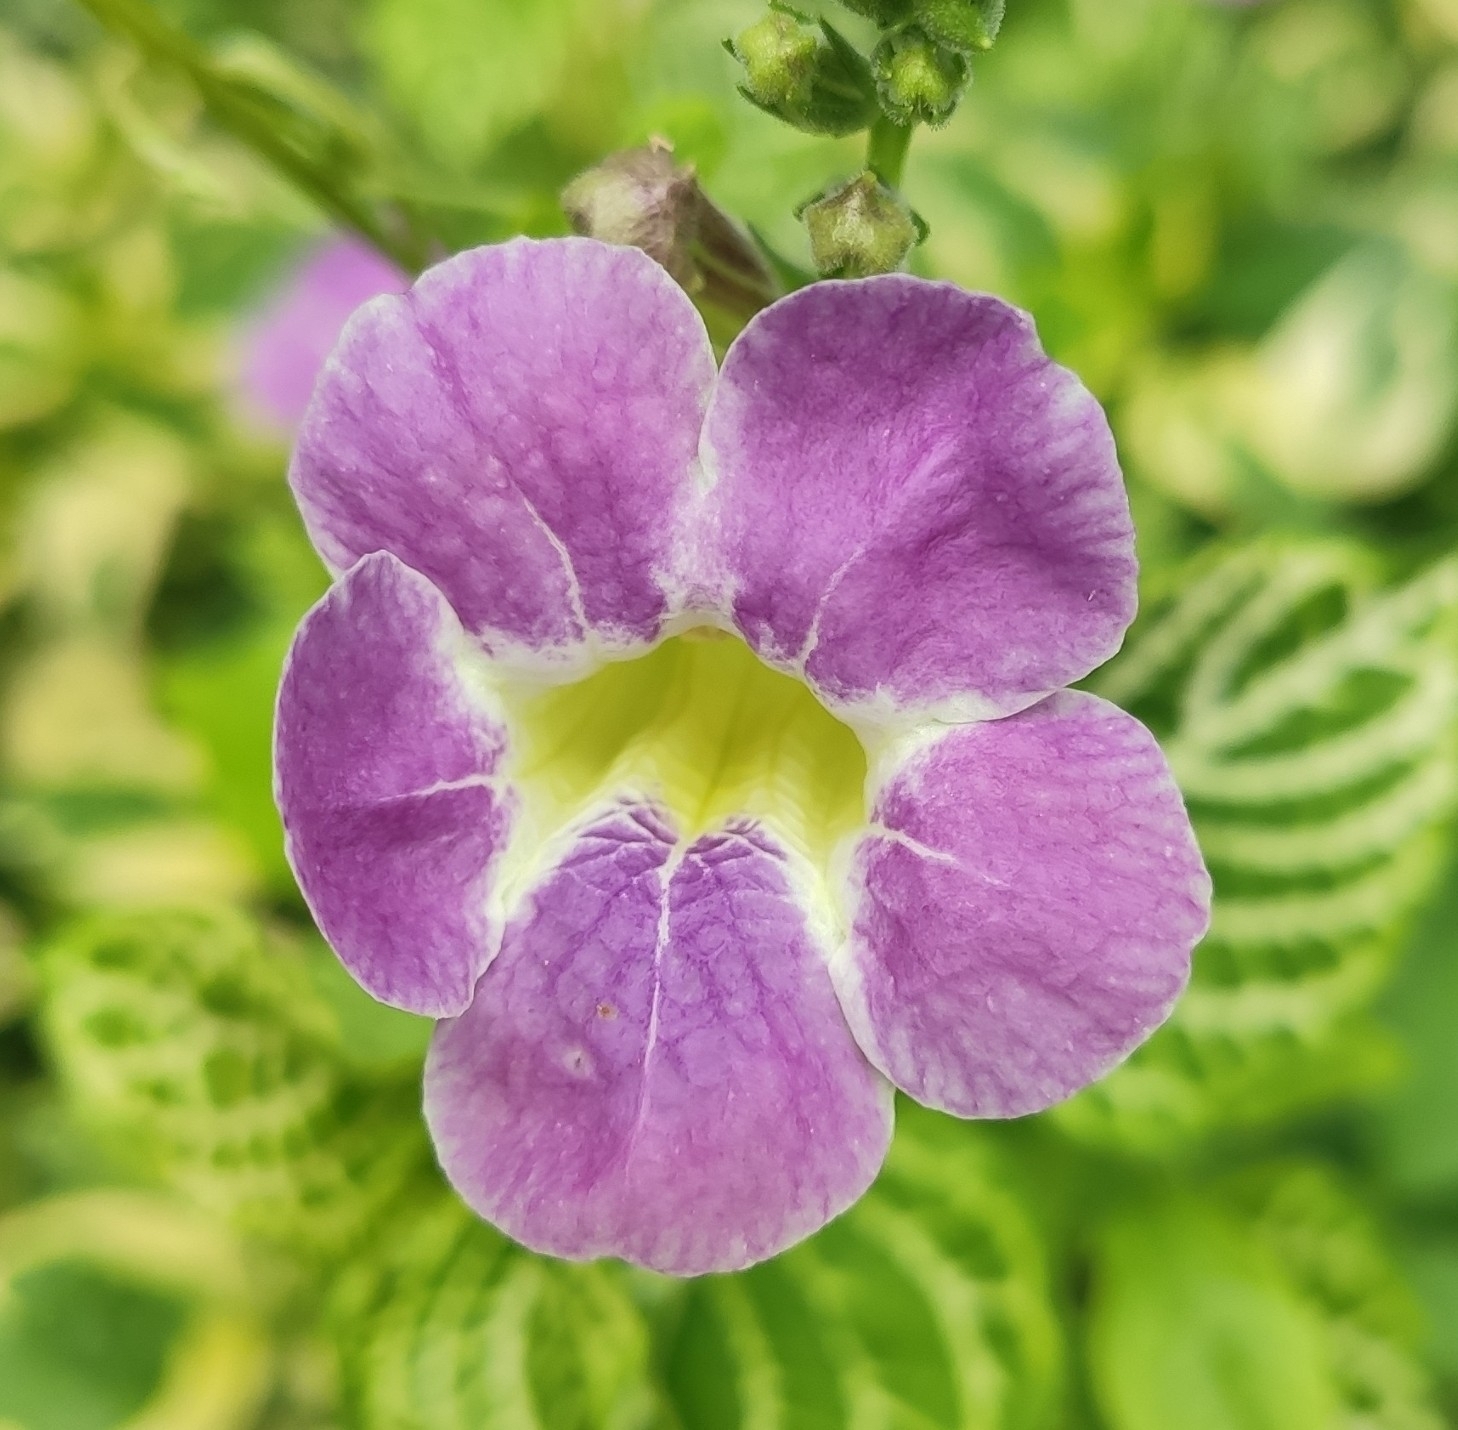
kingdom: Plantae
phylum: Tracheophyta
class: Magnoliopsida
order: Lamiales
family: Acanthaceae
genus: Asystasia
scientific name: Asystasia gangetica
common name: Chinese violet
